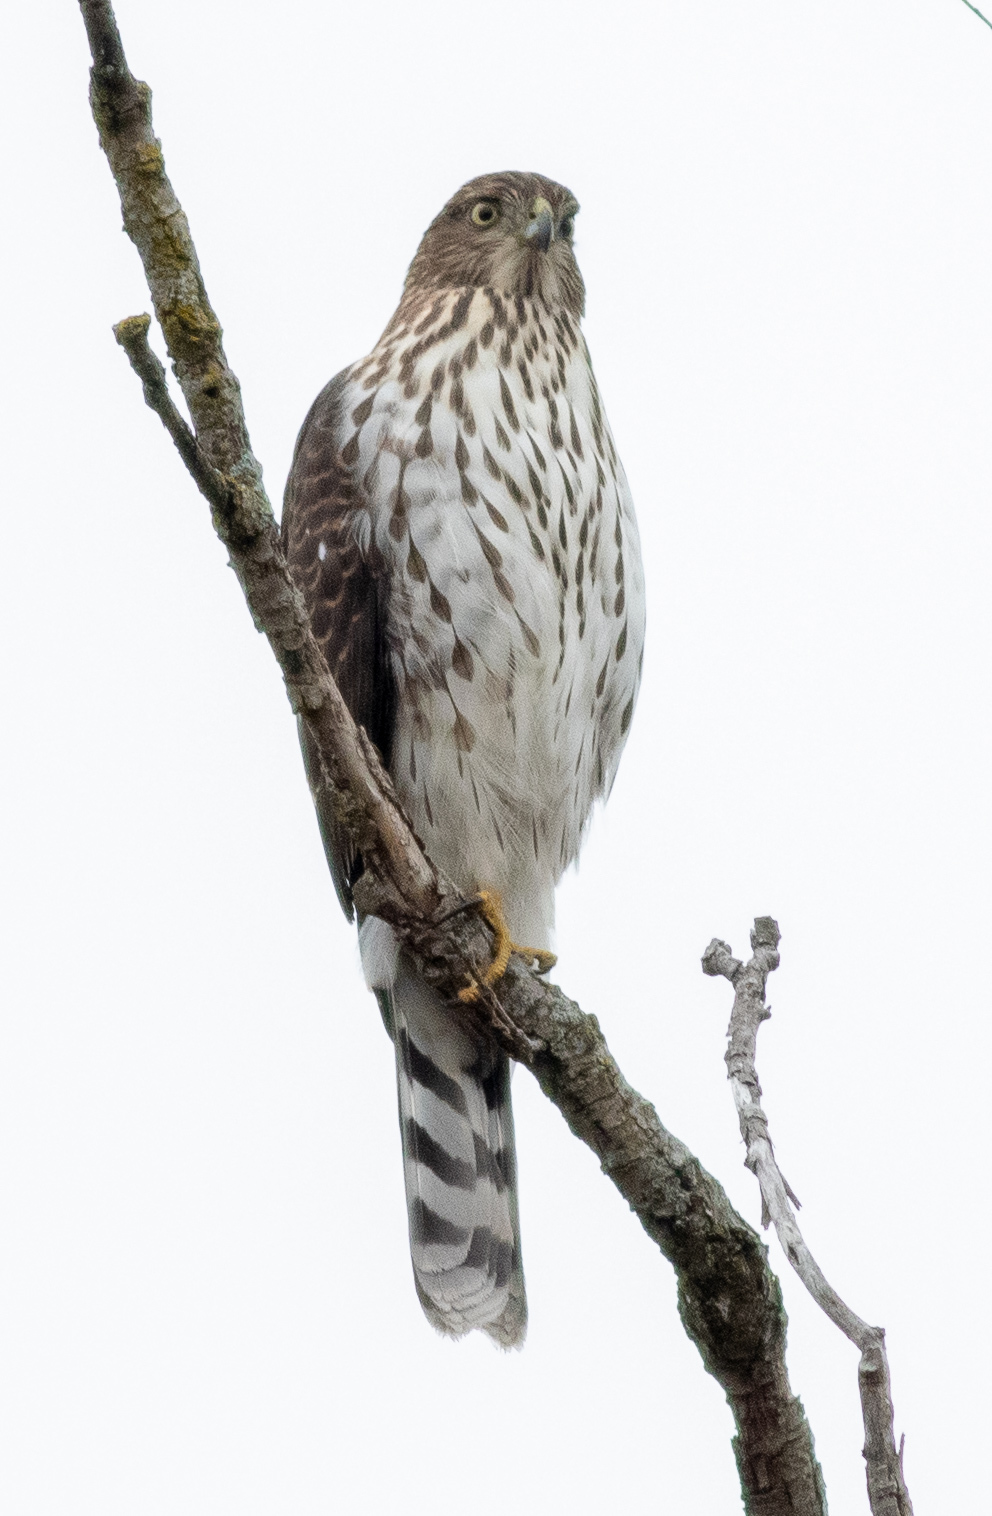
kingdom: Animalia
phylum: Chordata
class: Aves
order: Accipitriformes
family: Accipitridae
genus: Accipiter
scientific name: Accipiter cooperii
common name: Cooper's hawk
